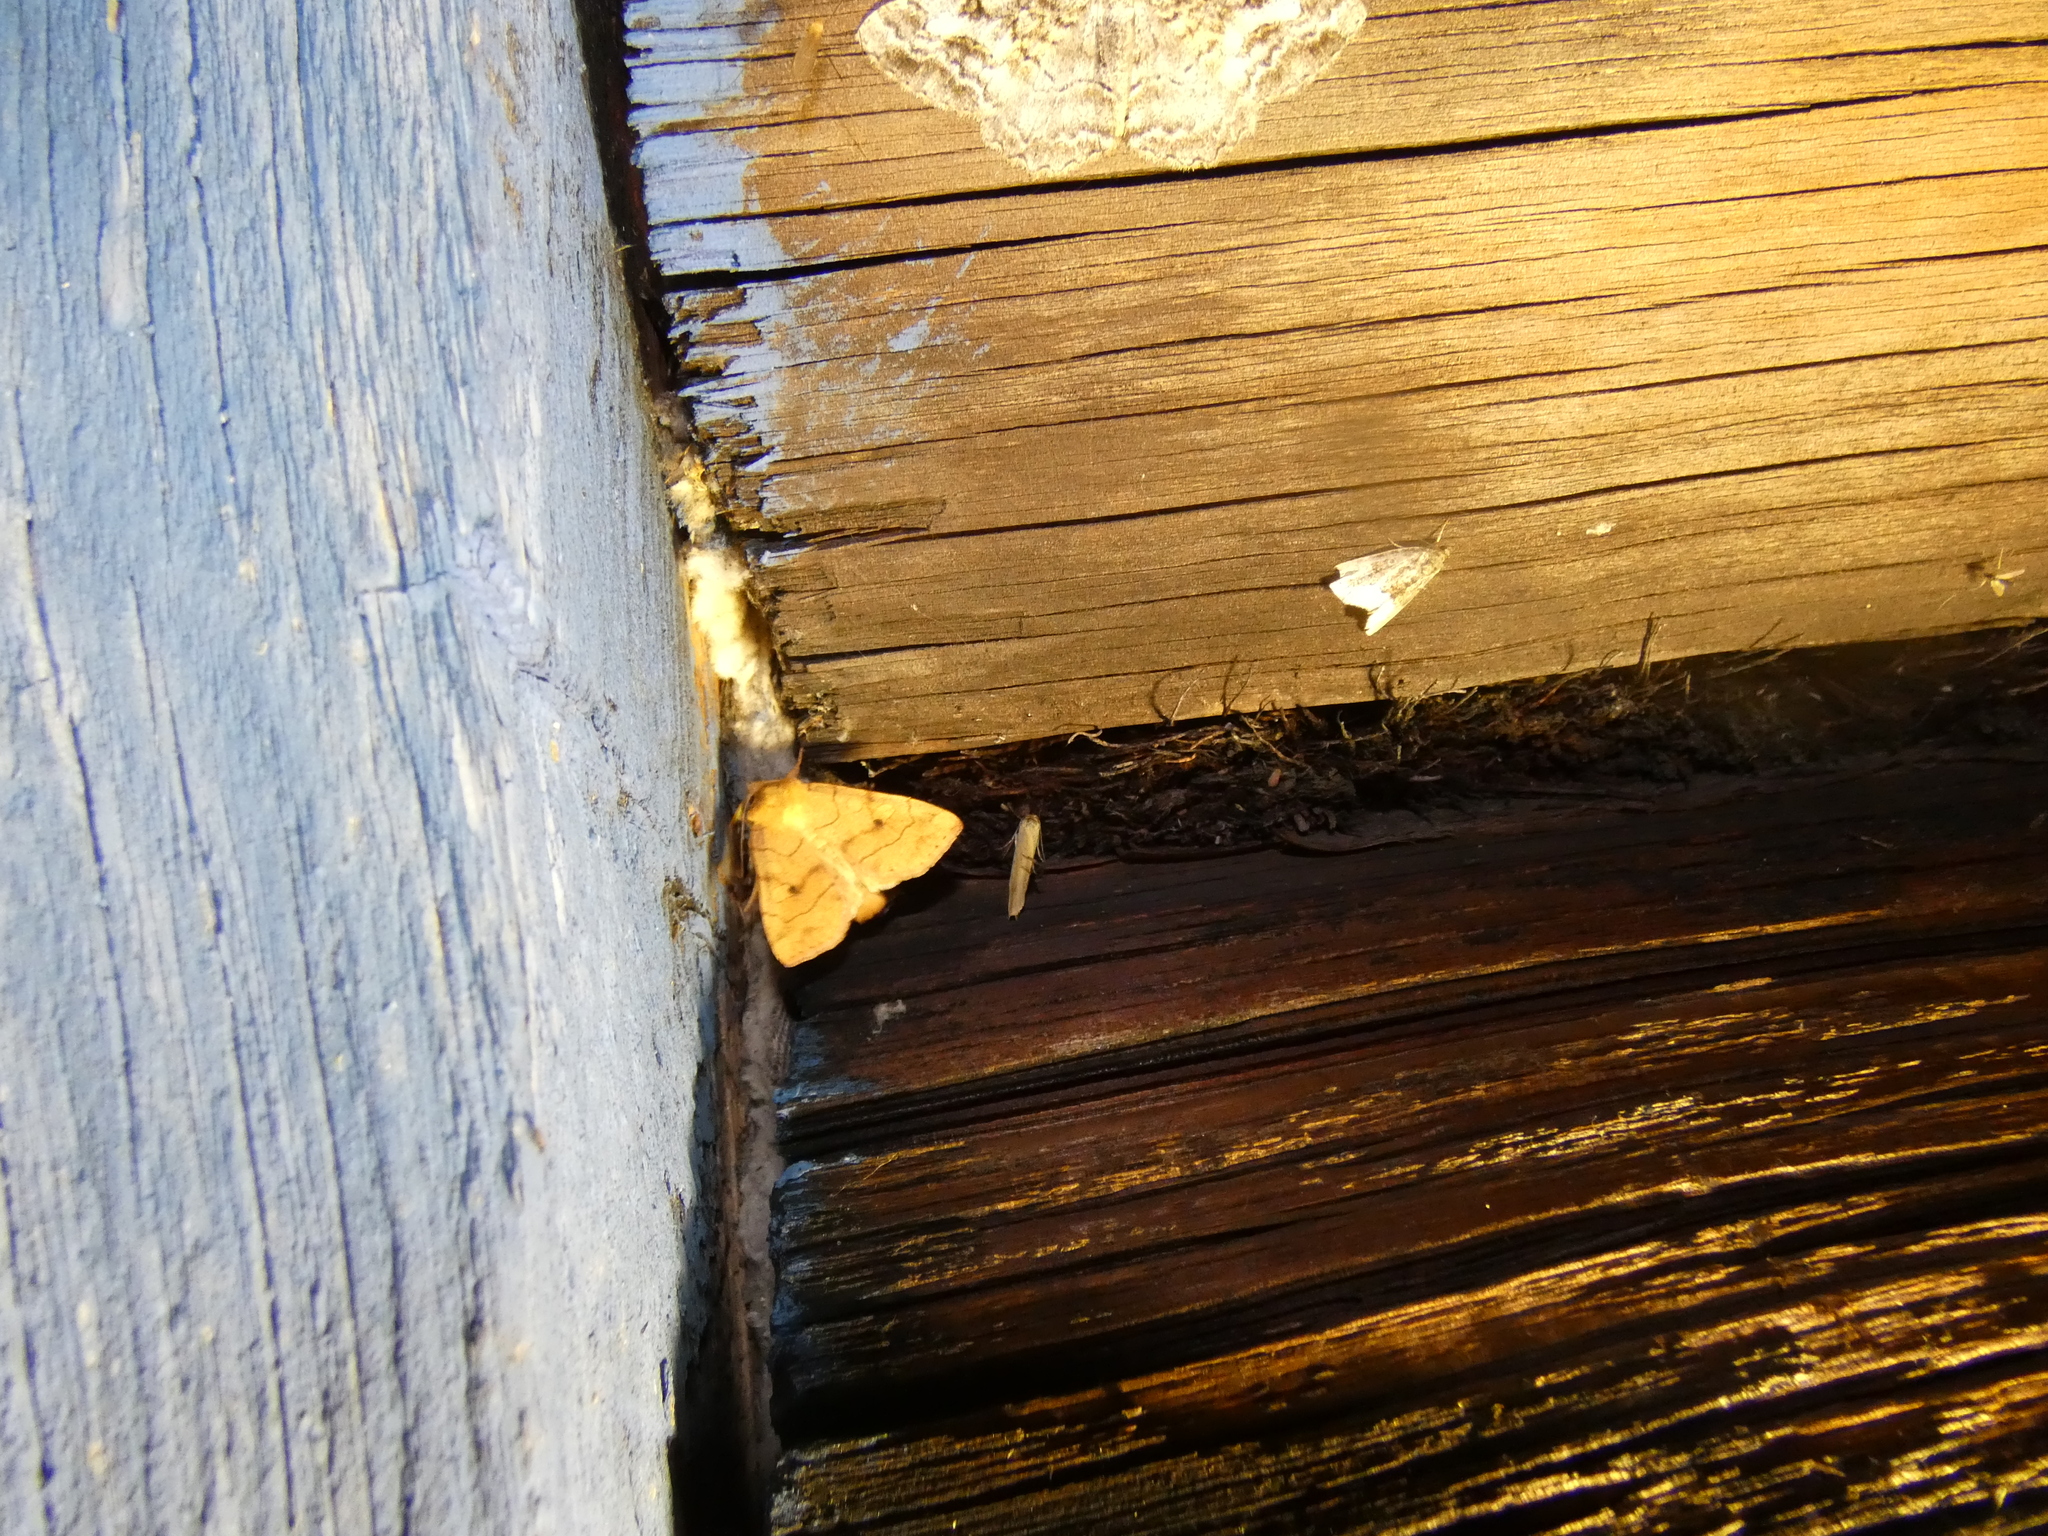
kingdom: Animalia
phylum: Arthropoda
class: Insecta
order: Lepidoptera
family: Noctuidae
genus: Enargia
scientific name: Enargia paleacea
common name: Angle-striped sallow
